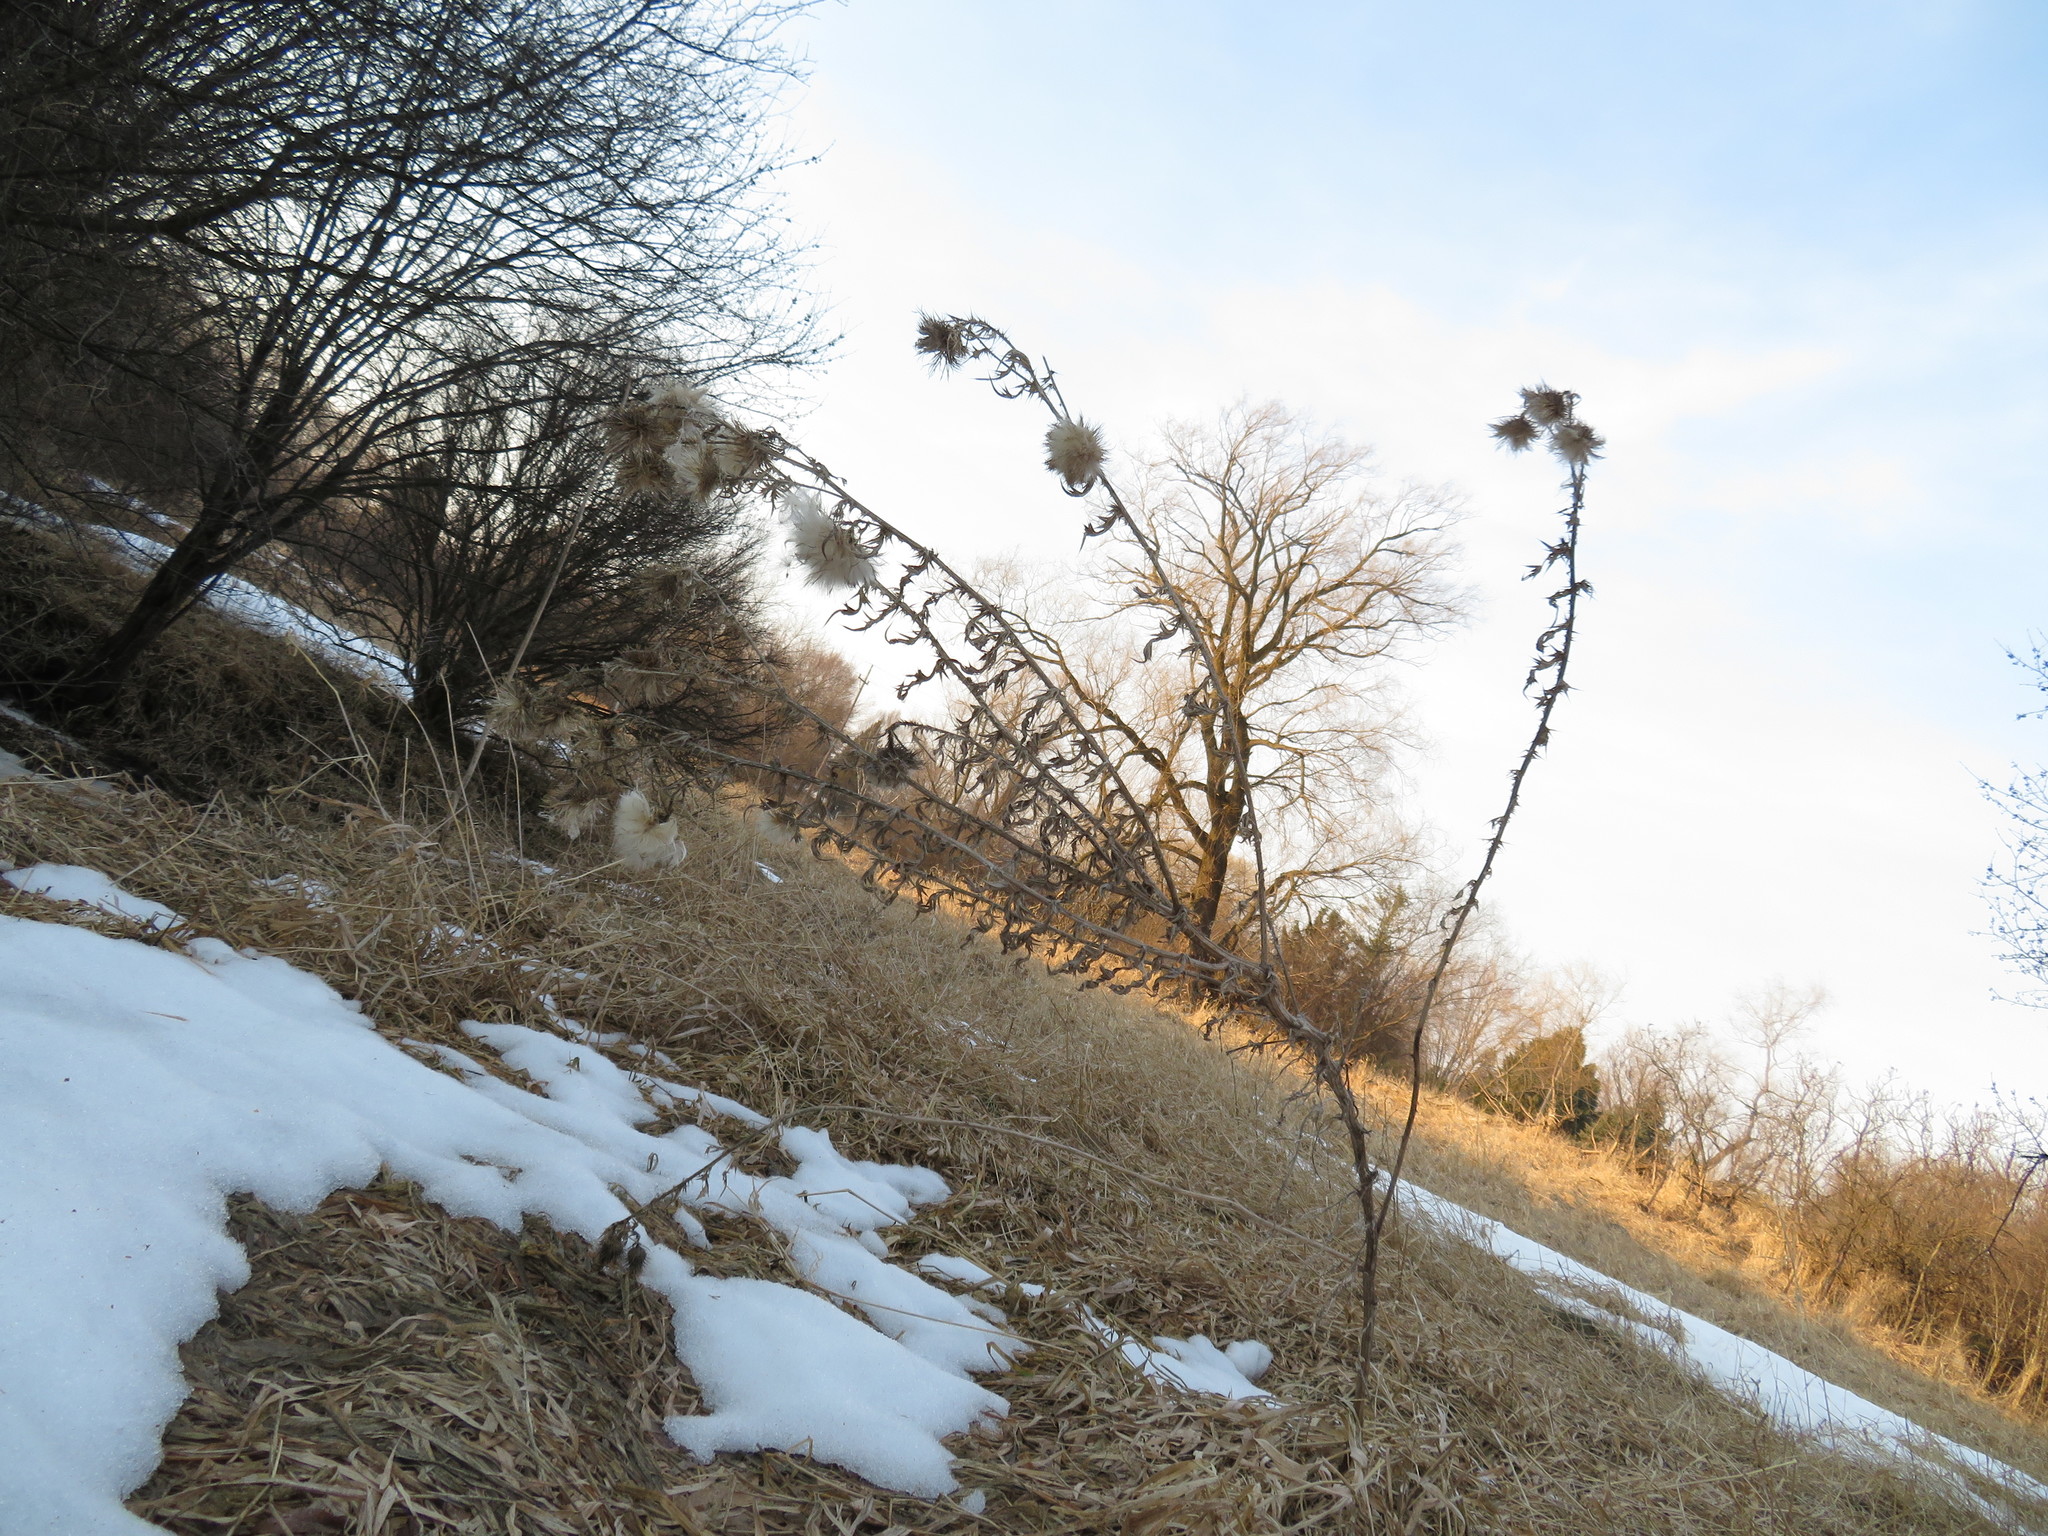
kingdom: Plantae
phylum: Tracheophyta
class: Magnoliopsida
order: Asterales
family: Asteraceae
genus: Cirsium
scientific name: Cirsium vulgare
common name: Bull thistle
